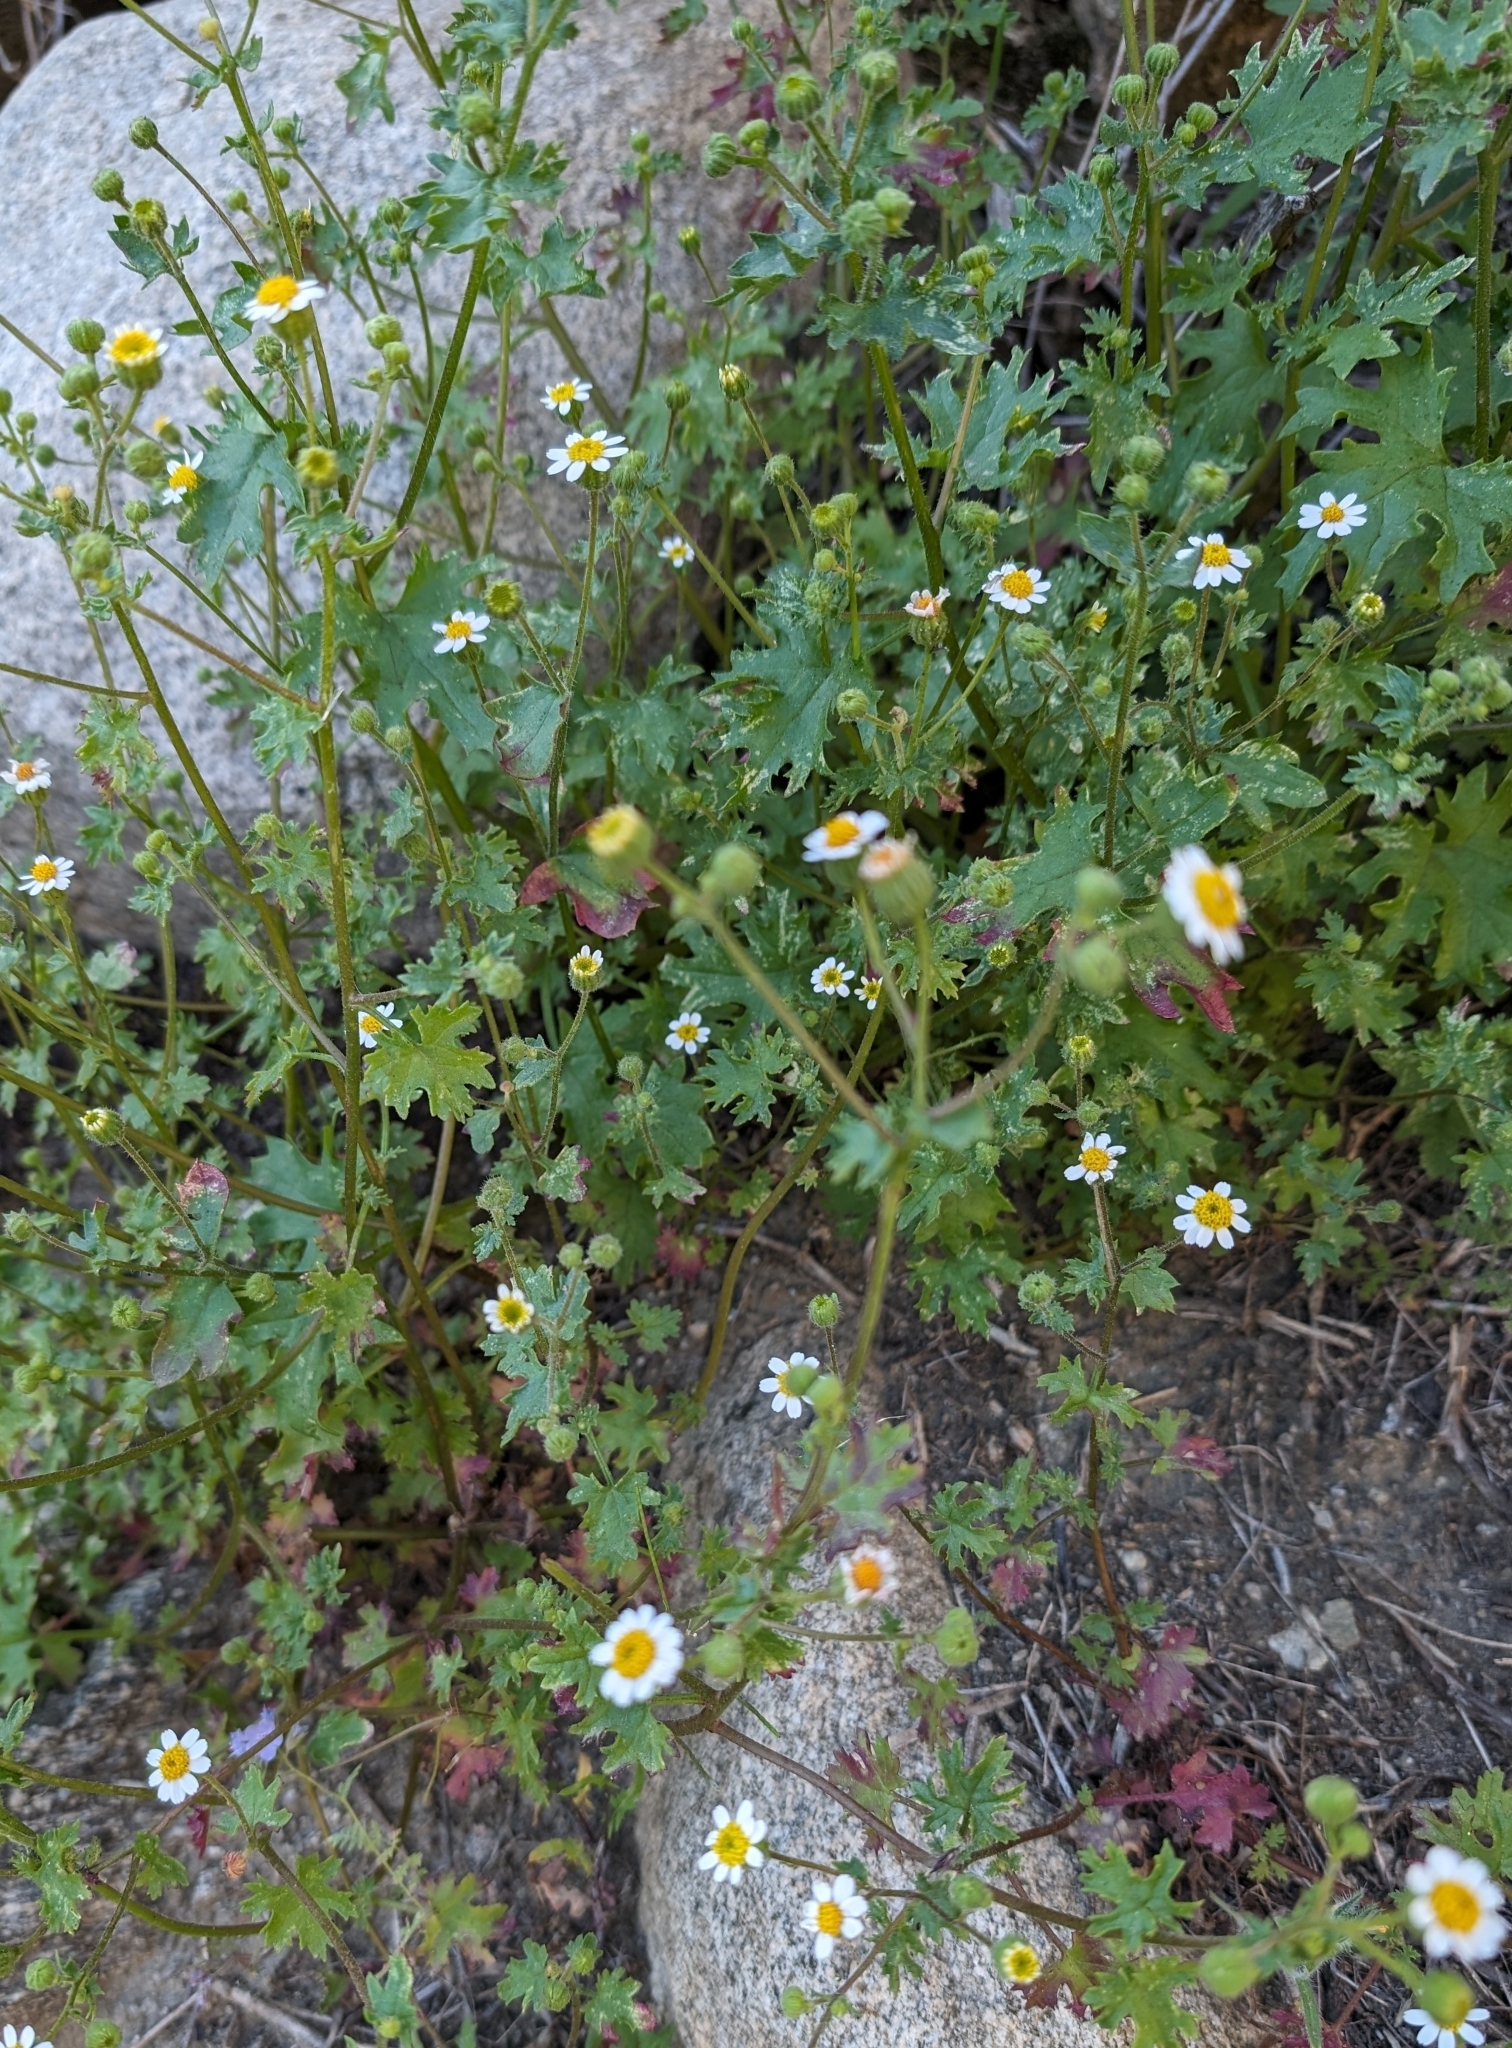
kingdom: Plantae
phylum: Tracheophyta
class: Magnoliopsida
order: Asterales
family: Asteraceae
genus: Laphamia
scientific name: Laphamia emoryi
